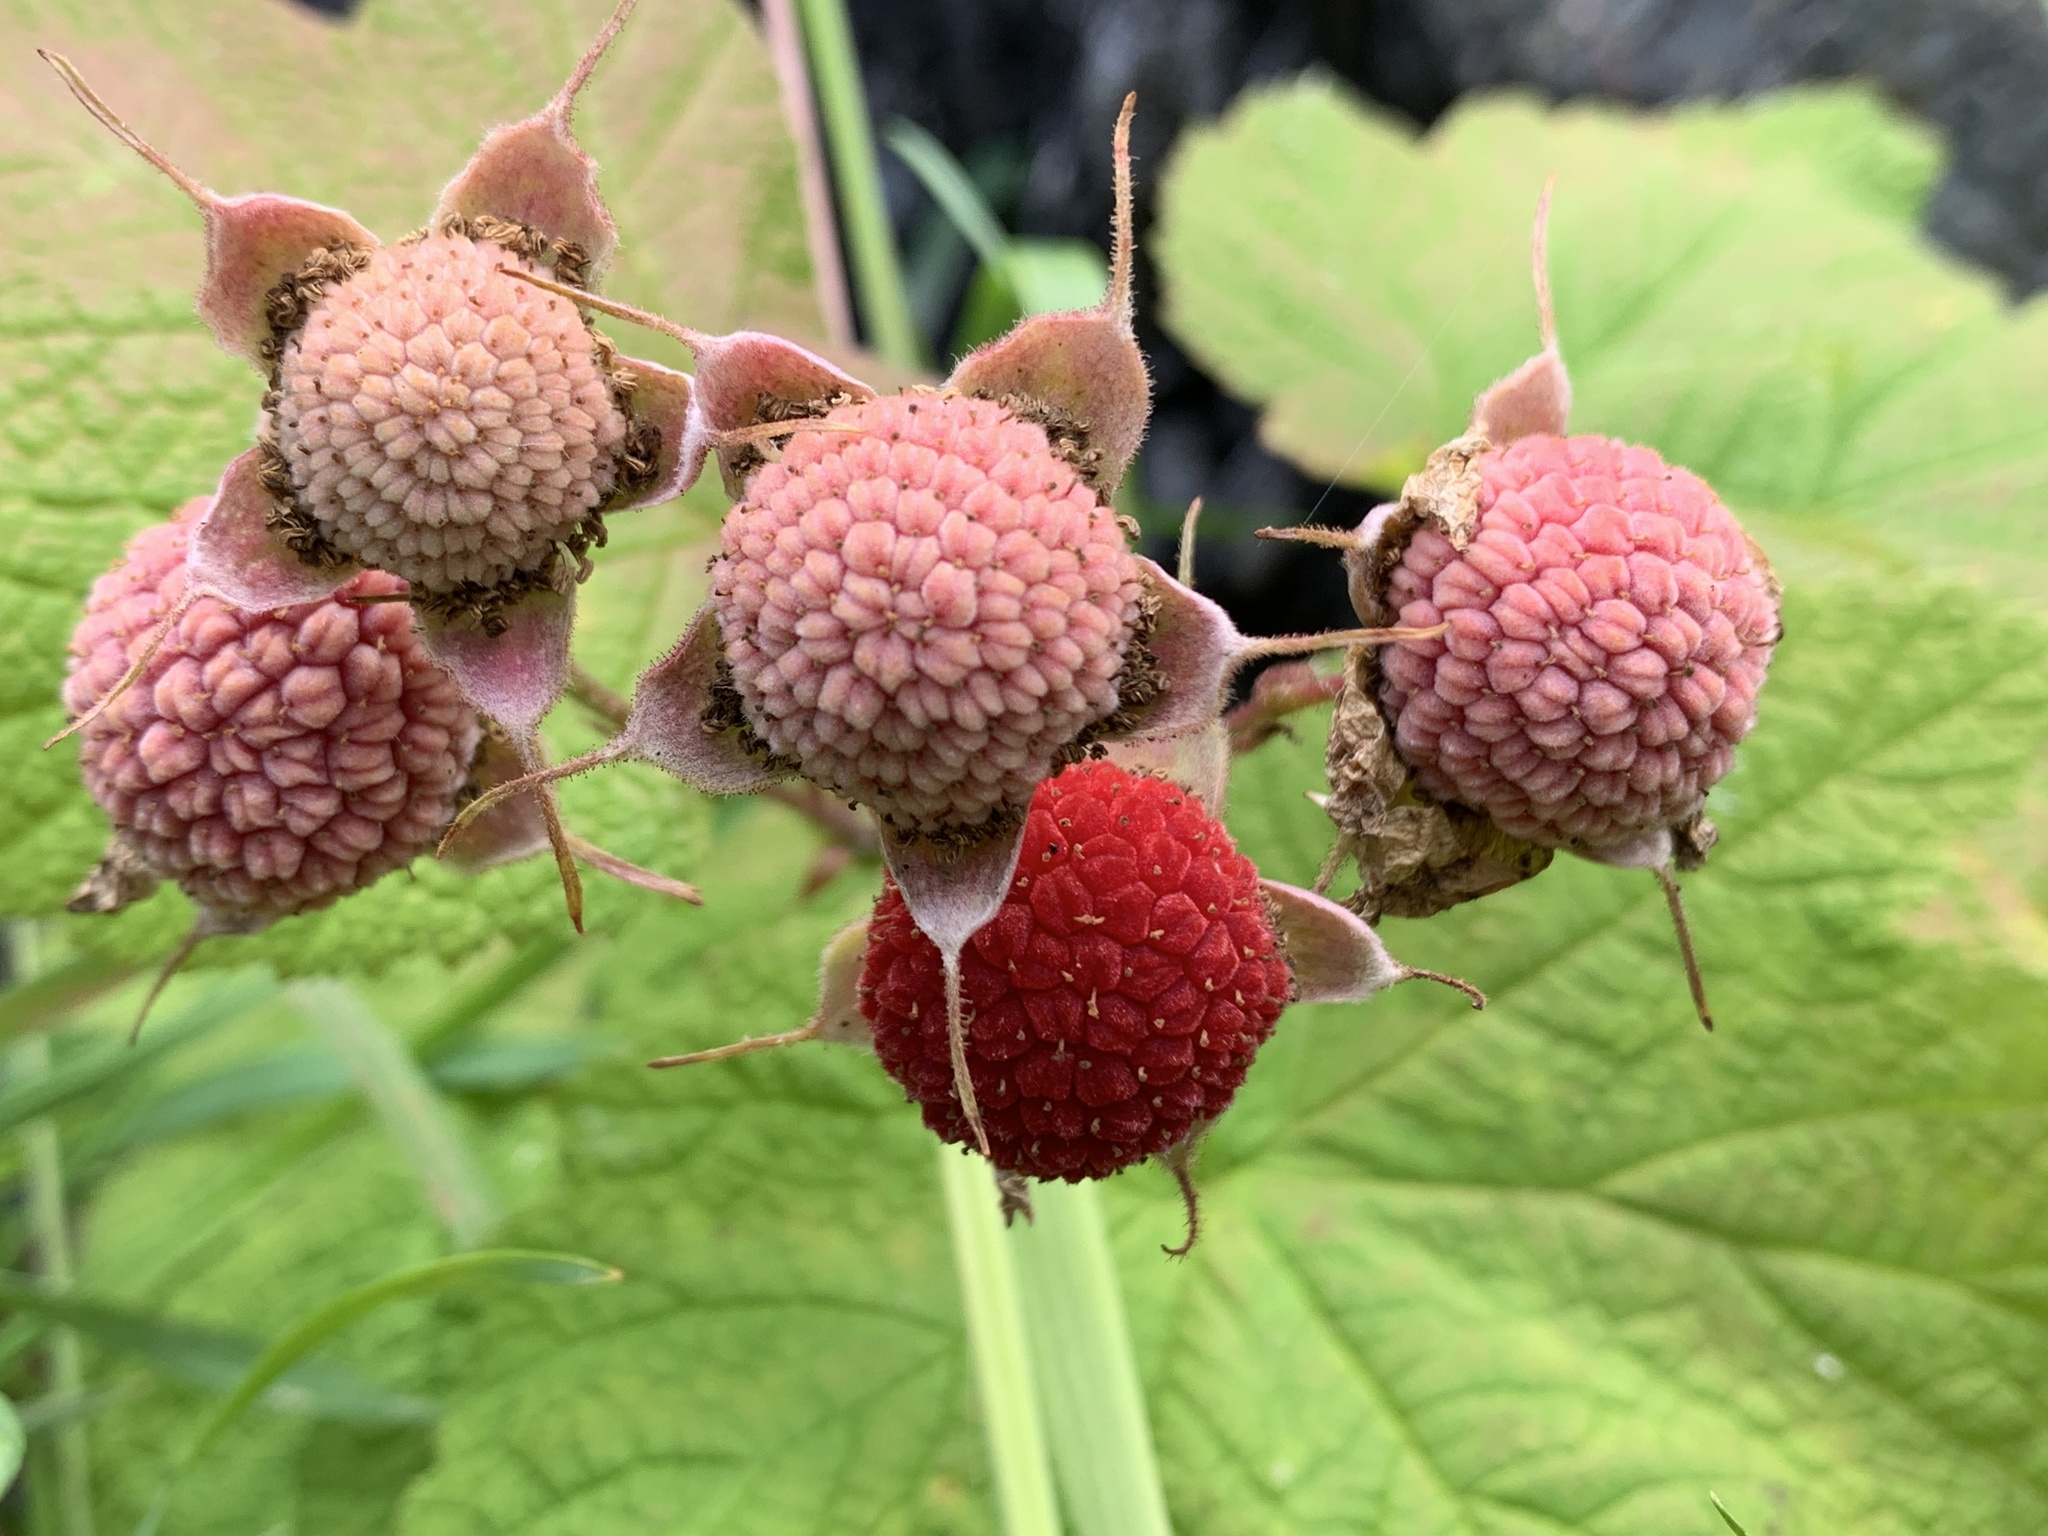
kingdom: Plantae
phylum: Tracheophyta
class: Magnoliopsida
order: Rosales
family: Rosaceae
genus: Rubus
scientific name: Rubus parviflorus
